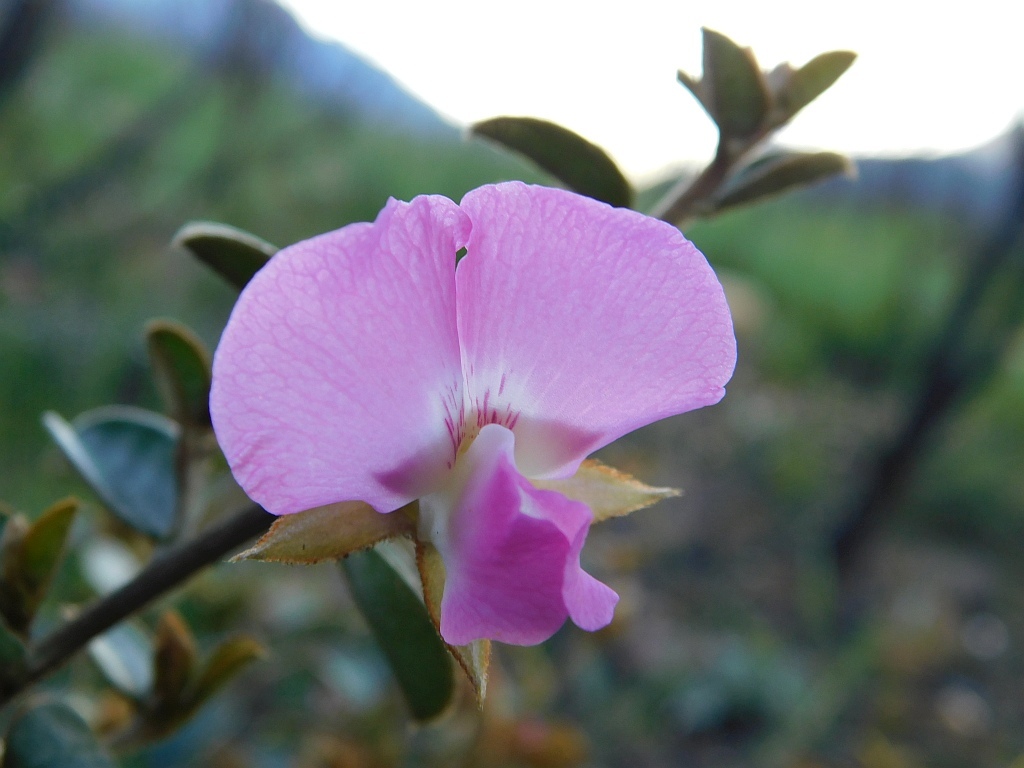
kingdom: Plantae
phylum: Tracheophyta
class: Magnoliopsida
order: Fabales
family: Fabaceae
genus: Podalyria
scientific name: Podalyria variabilis
